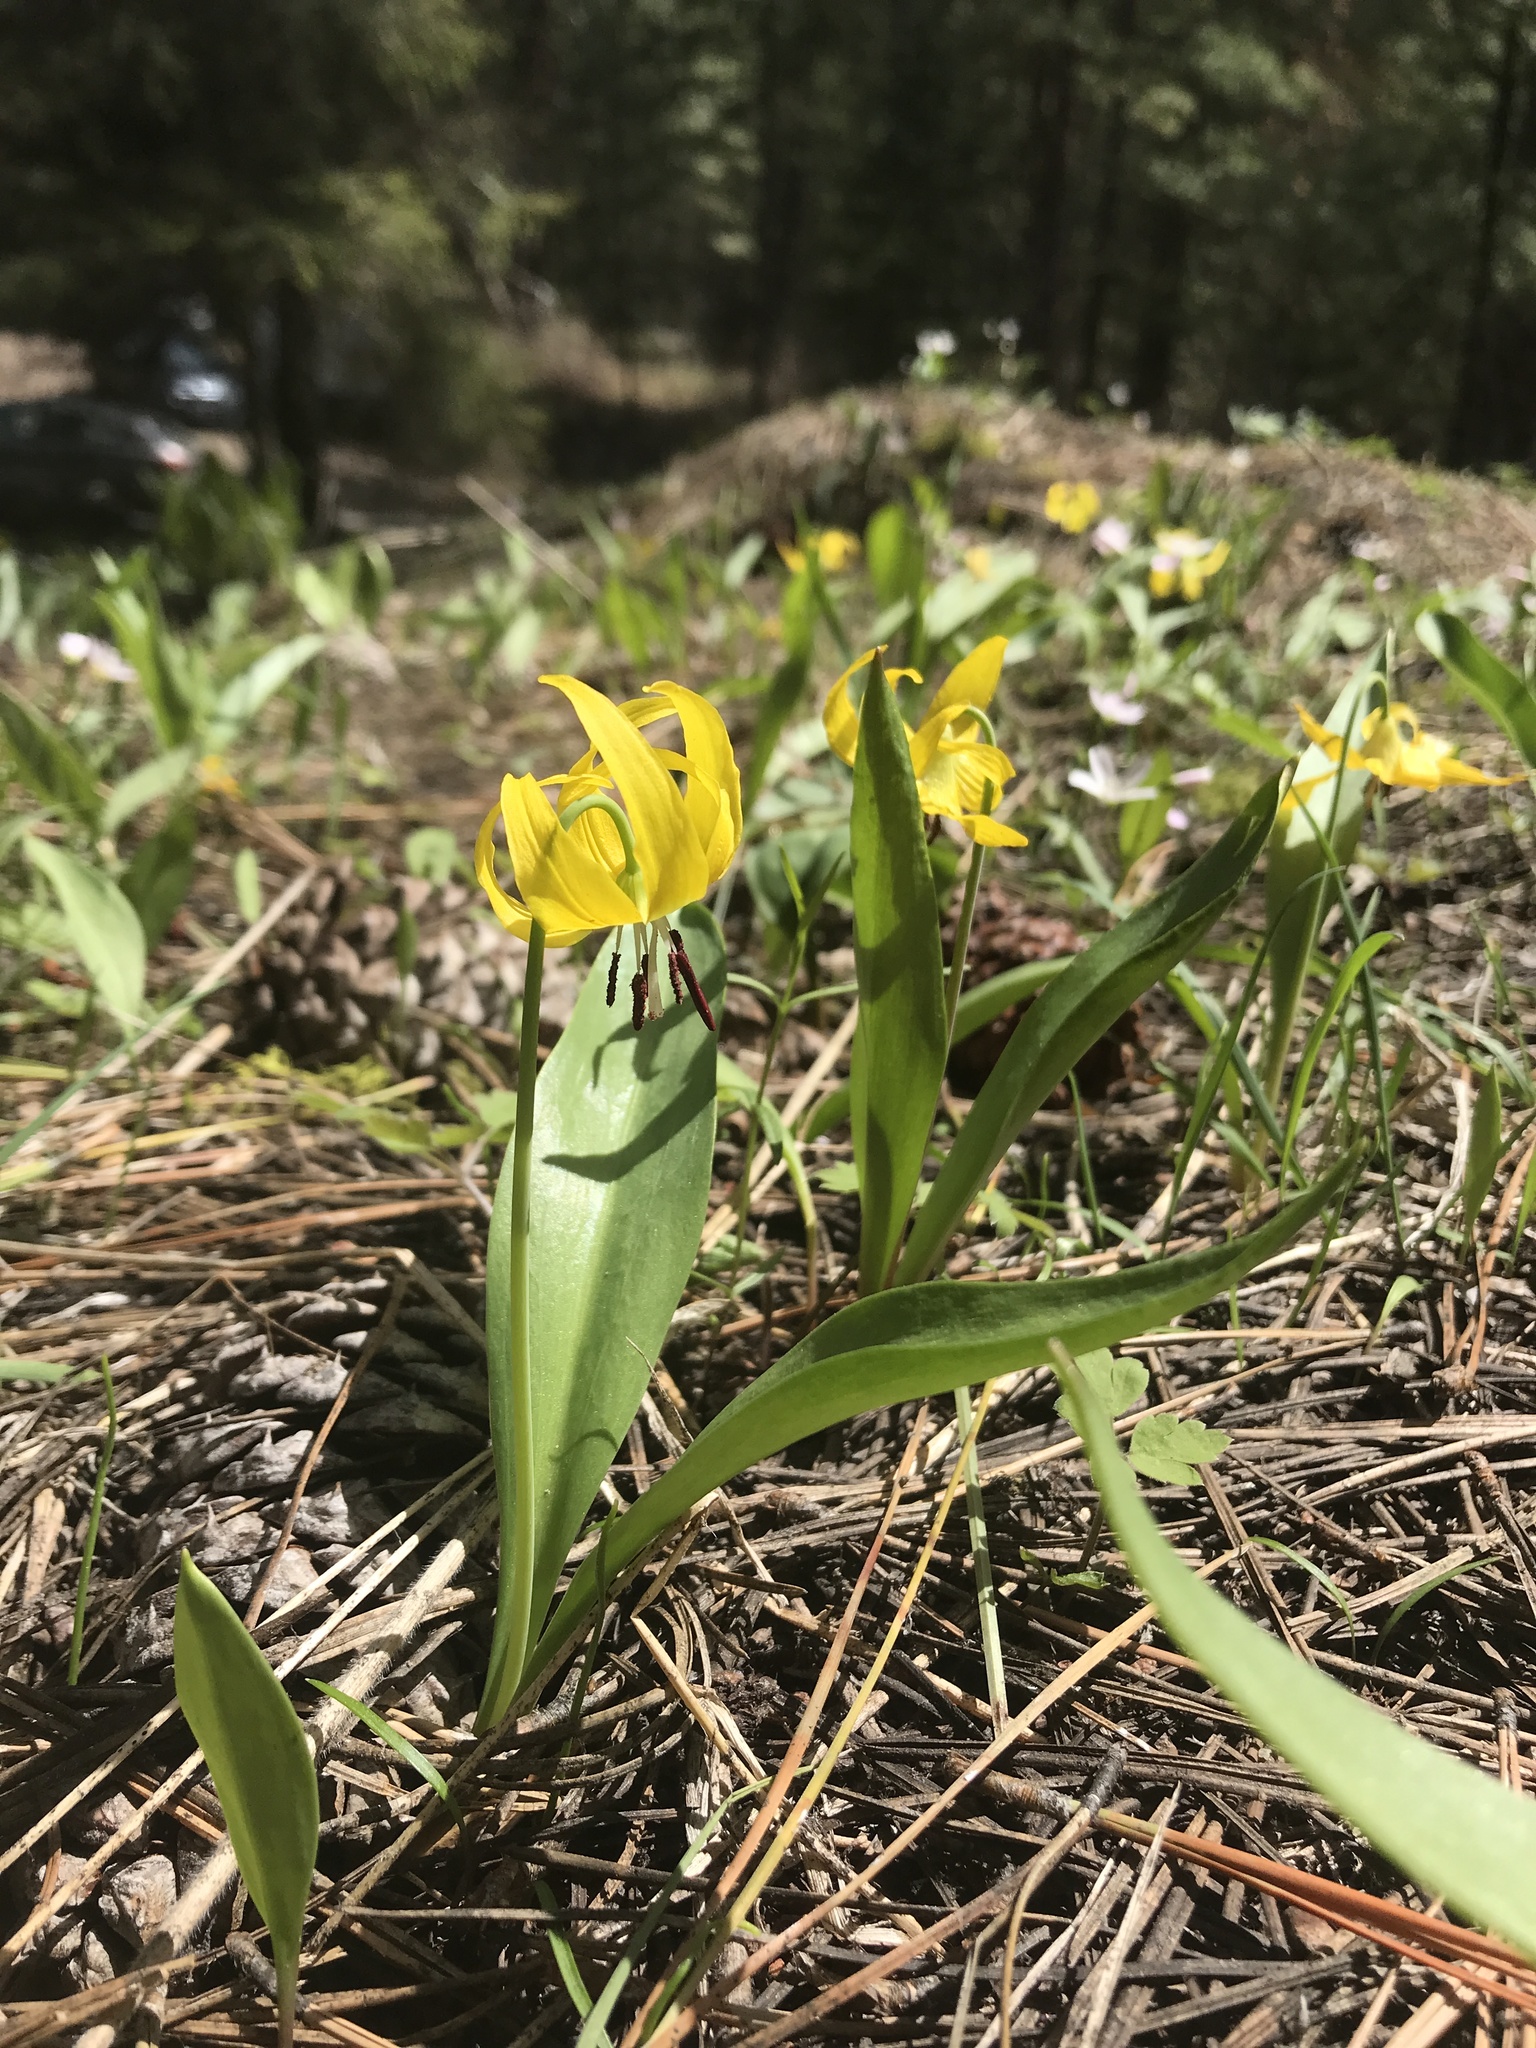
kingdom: Plantae
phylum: Tracheophyta
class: Liliopsida
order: Liliales
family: Liliaceae
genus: Erythronium
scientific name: Erythronium grandiflorum
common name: Avalanche-lily
